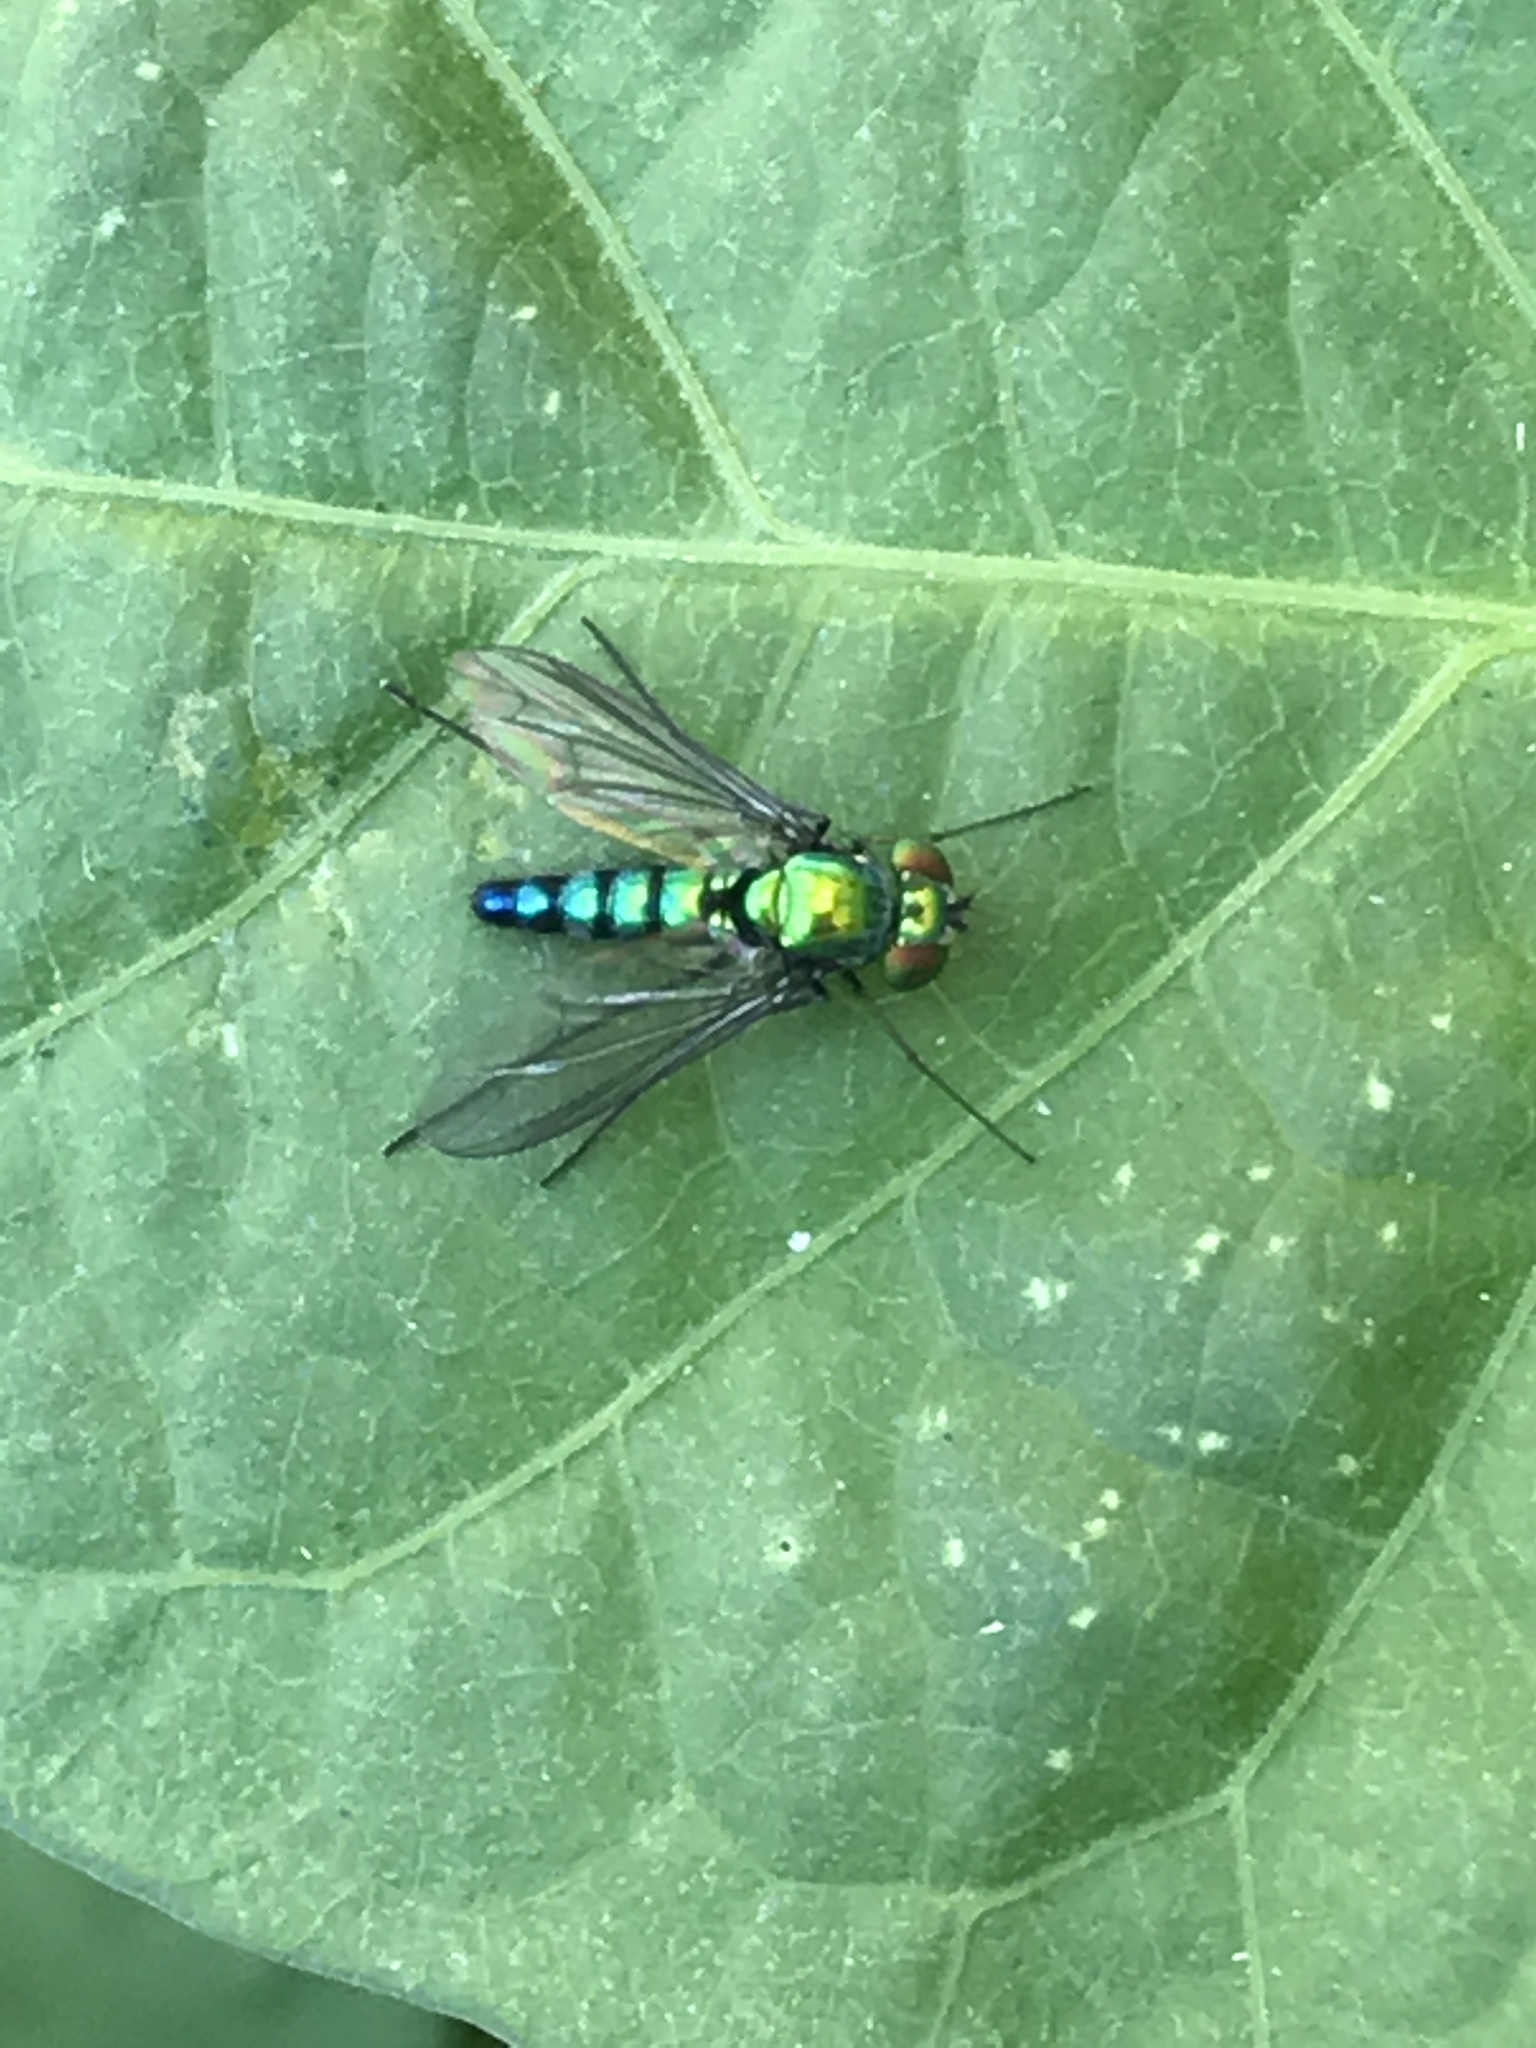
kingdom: Animalia
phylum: Arthropoda
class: Insecta
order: Diptera
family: Dolichopodidae
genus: Condylostylus
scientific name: Condylostylus longicornis
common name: Long-legged fly
